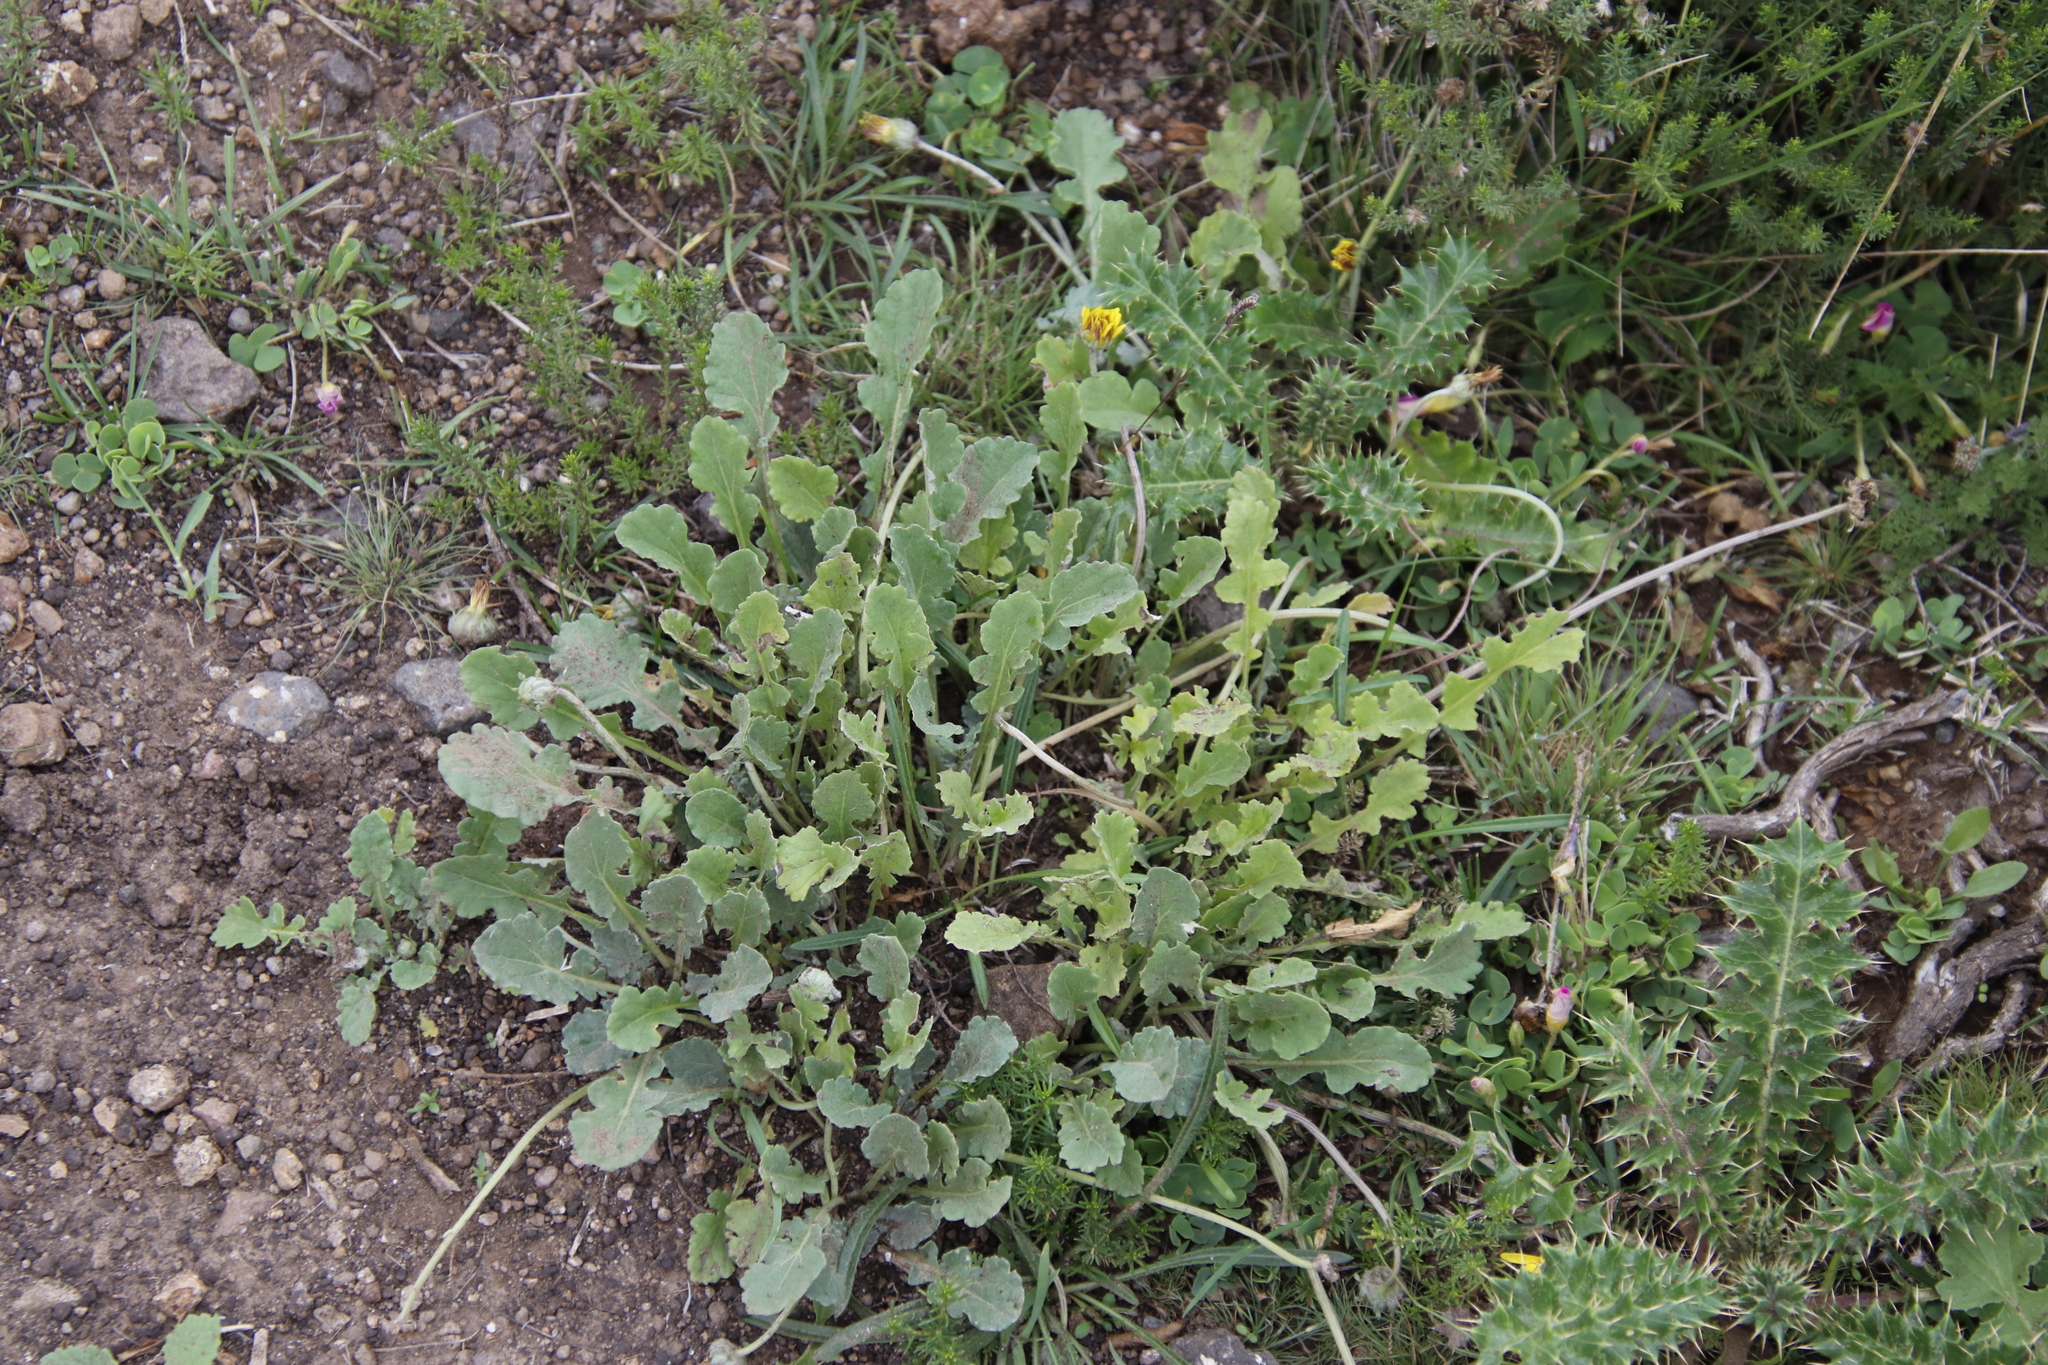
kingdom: Plantae
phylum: Tracheophyta
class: Magnoliopsida
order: Asterales
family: Asteraceae
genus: Arctotis
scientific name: Arctotis arctotoides
